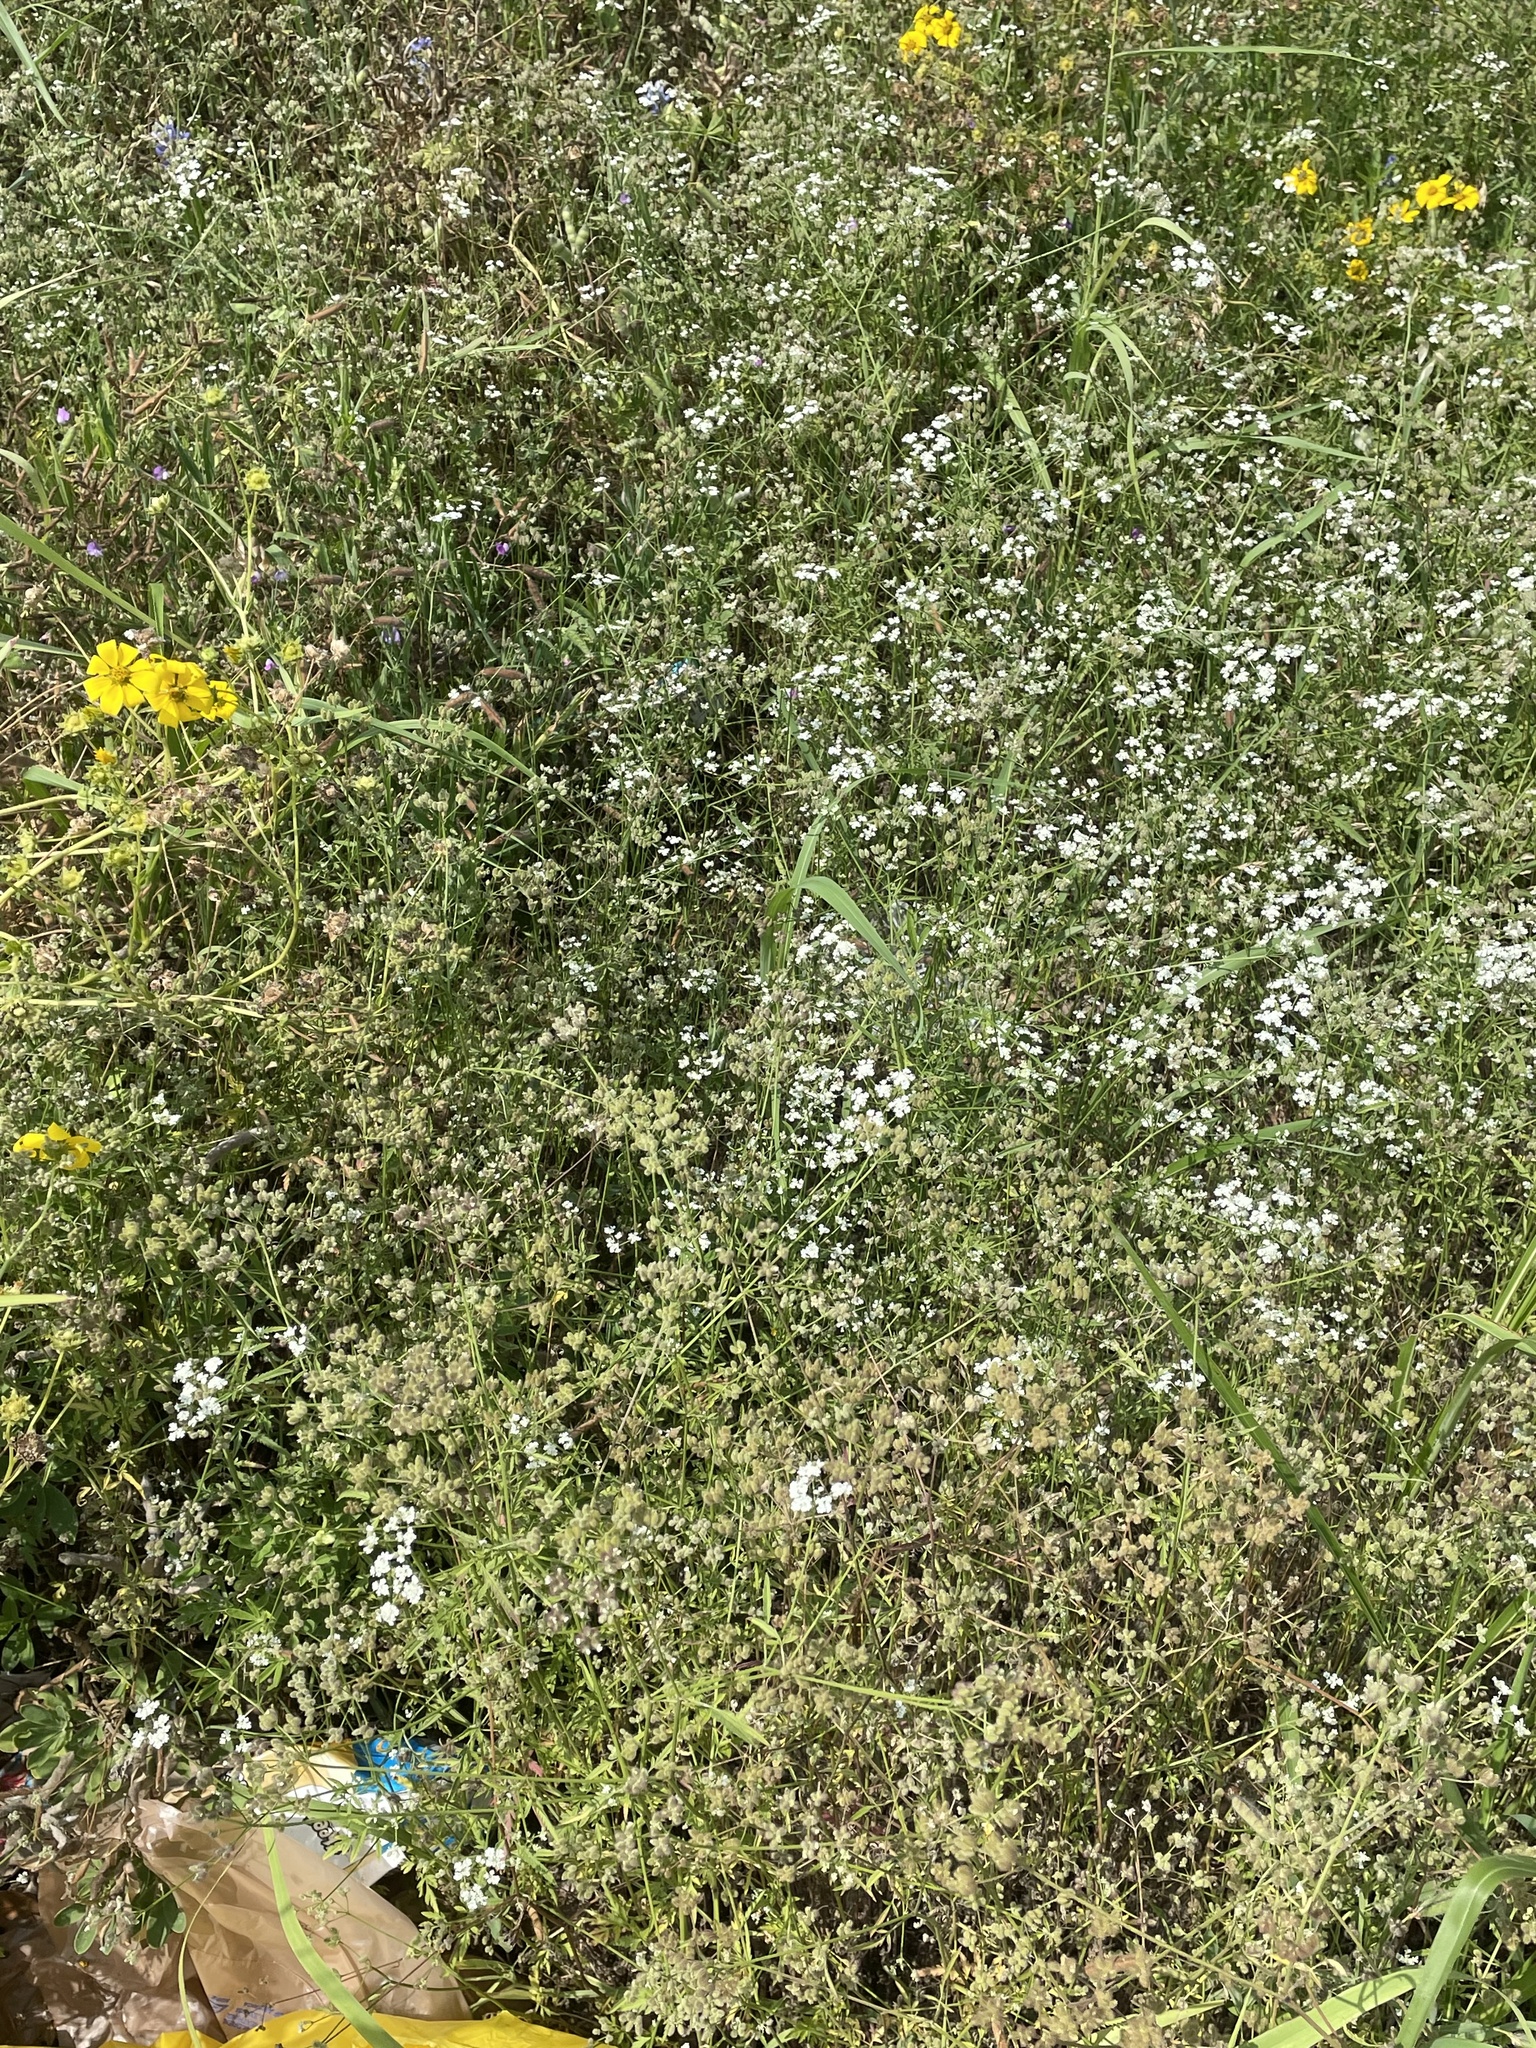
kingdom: Plantae
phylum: Tracheophyta
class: Magnoliopsida
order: Apiales
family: Apiaceae
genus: Torilis
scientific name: Torilis arvensis
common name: Spreading hedge-parsley
